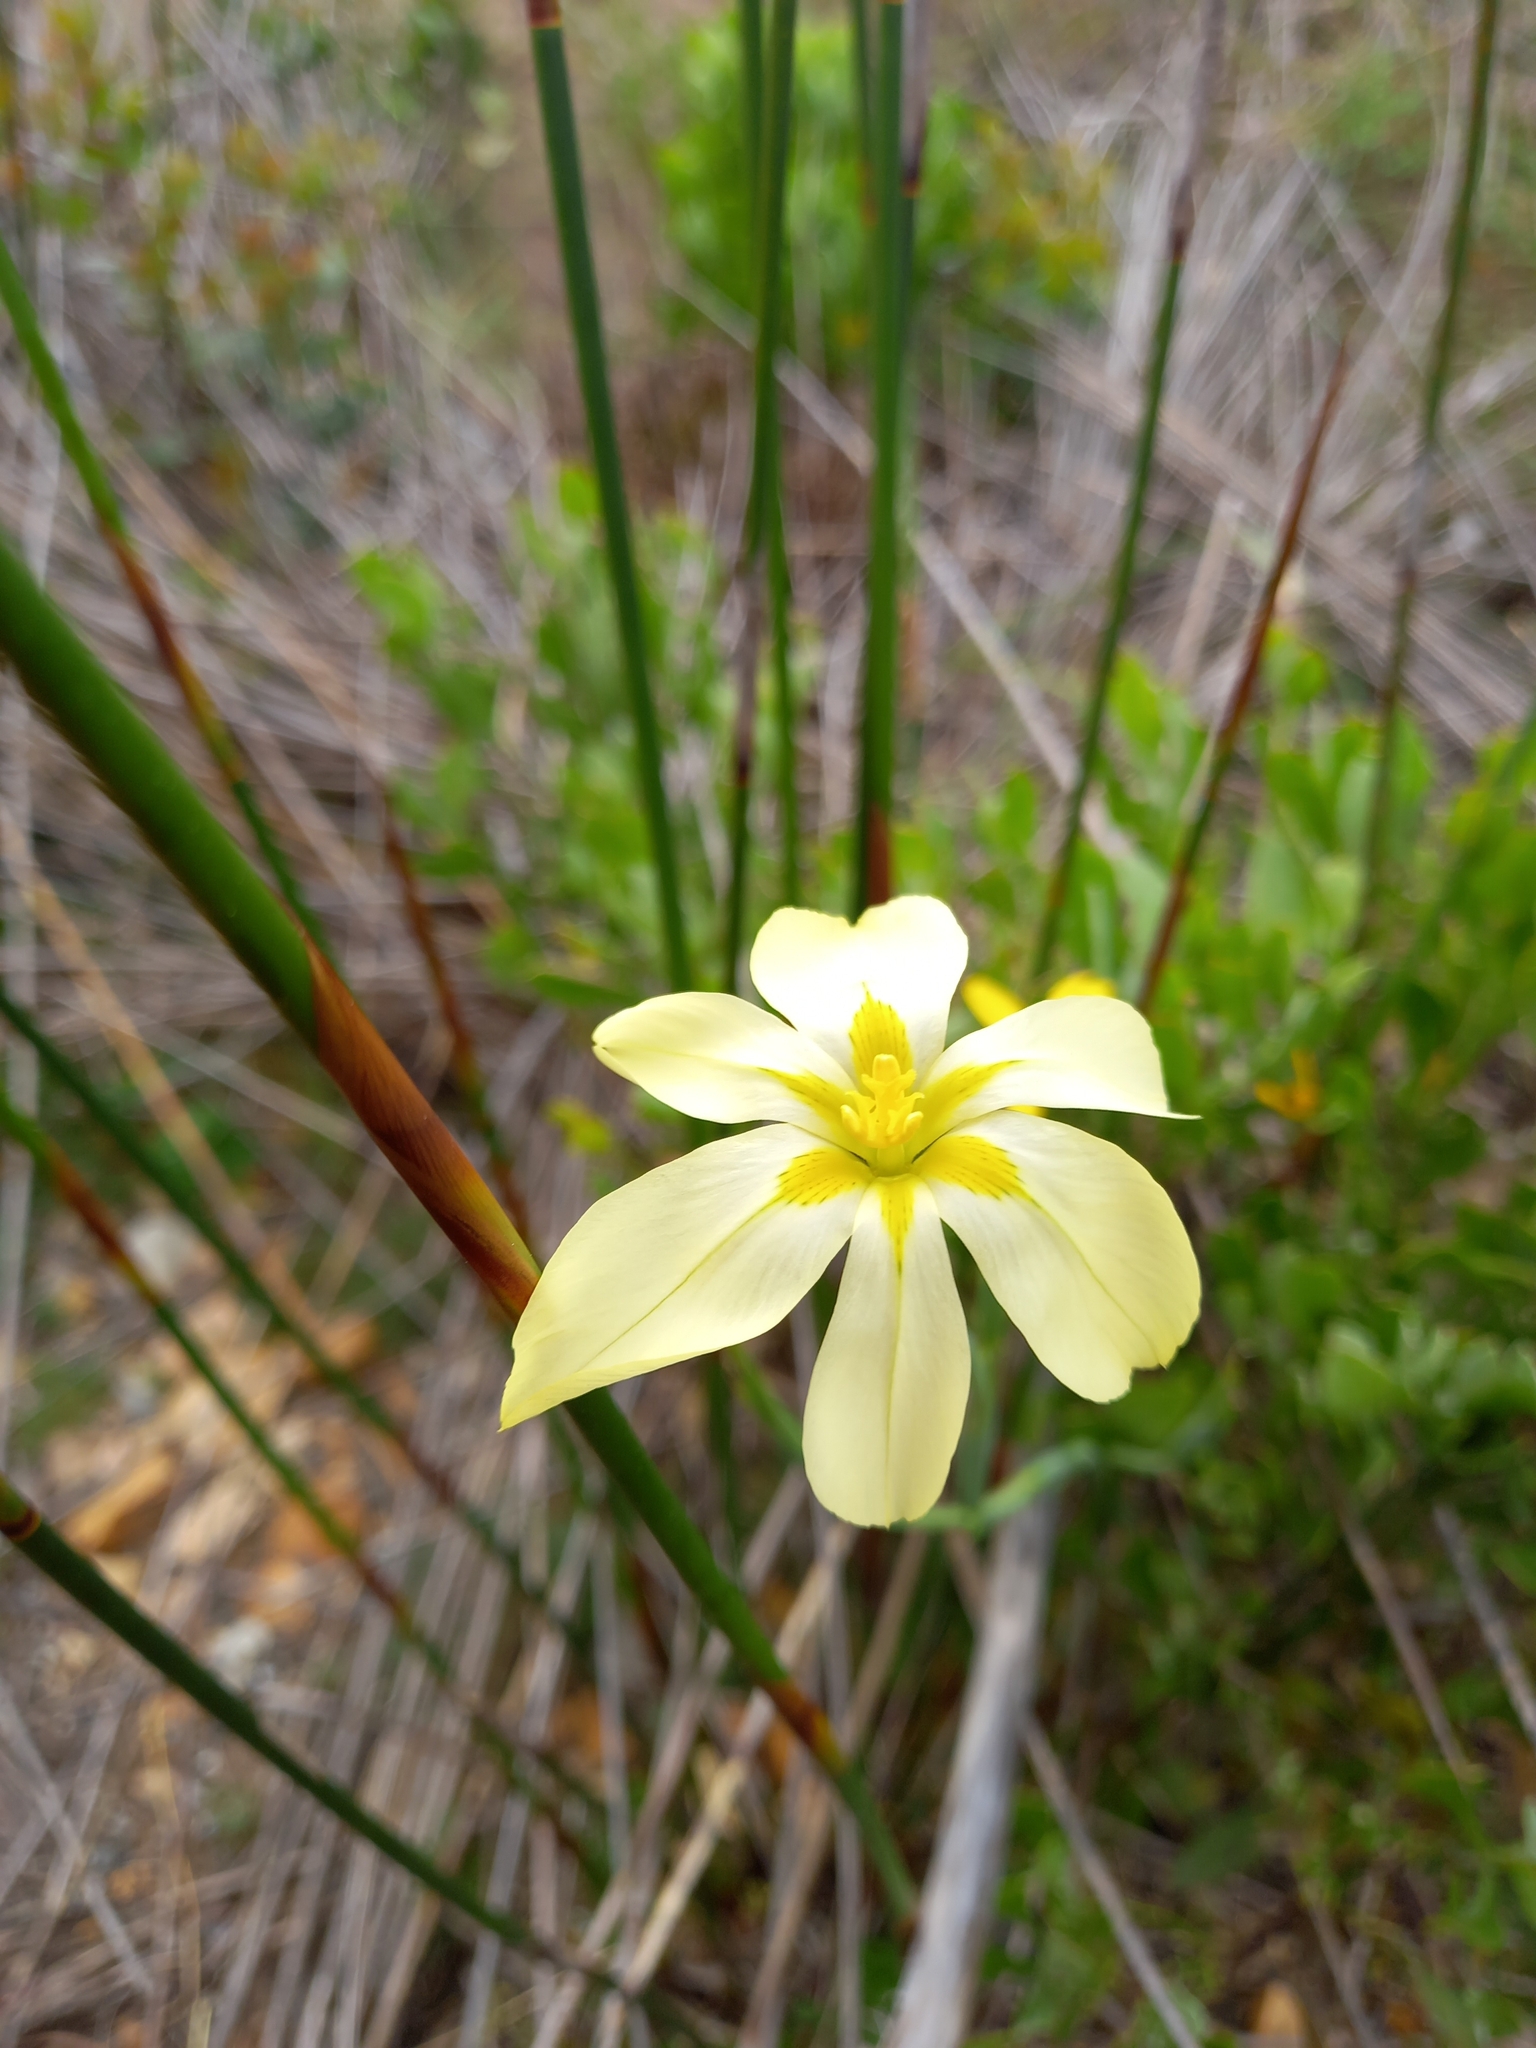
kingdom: Plantae
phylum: Tracheophyta
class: Liliopsida
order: Asparagales
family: Iridaceae
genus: Moraea
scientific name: Moraea bulbillifera
